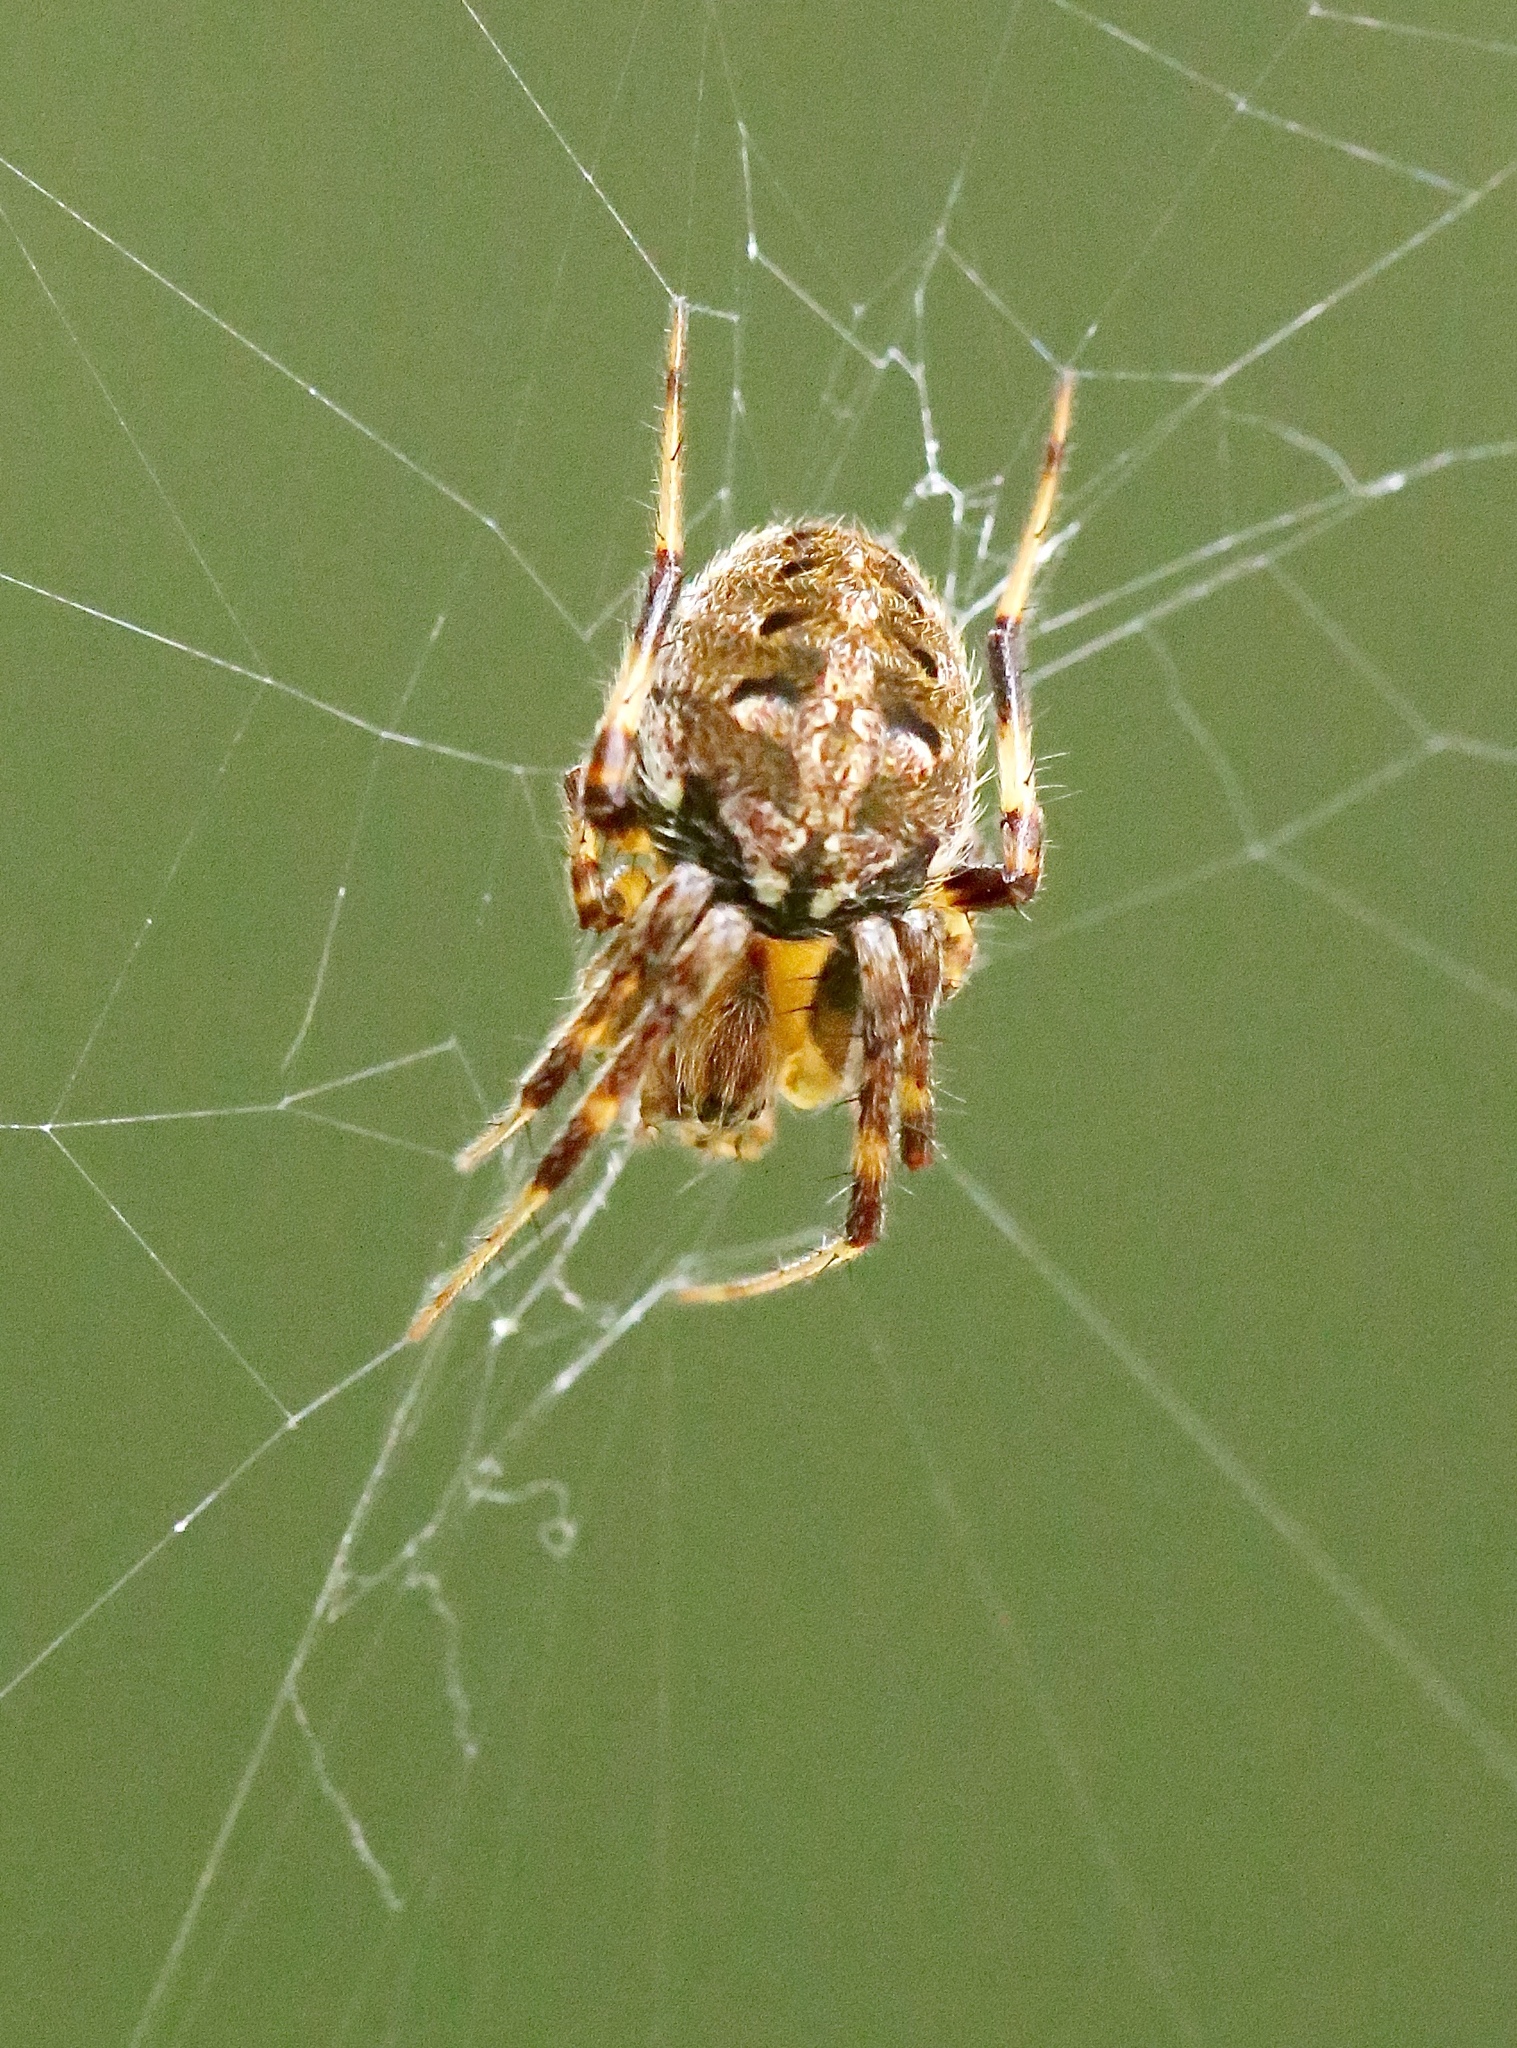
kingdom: Animalia
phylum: Arthropoda
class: Arachnida
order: Araneae
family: Araneidae
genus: Neoscona
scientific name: Neoscona arabesca
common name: Orb weavers
